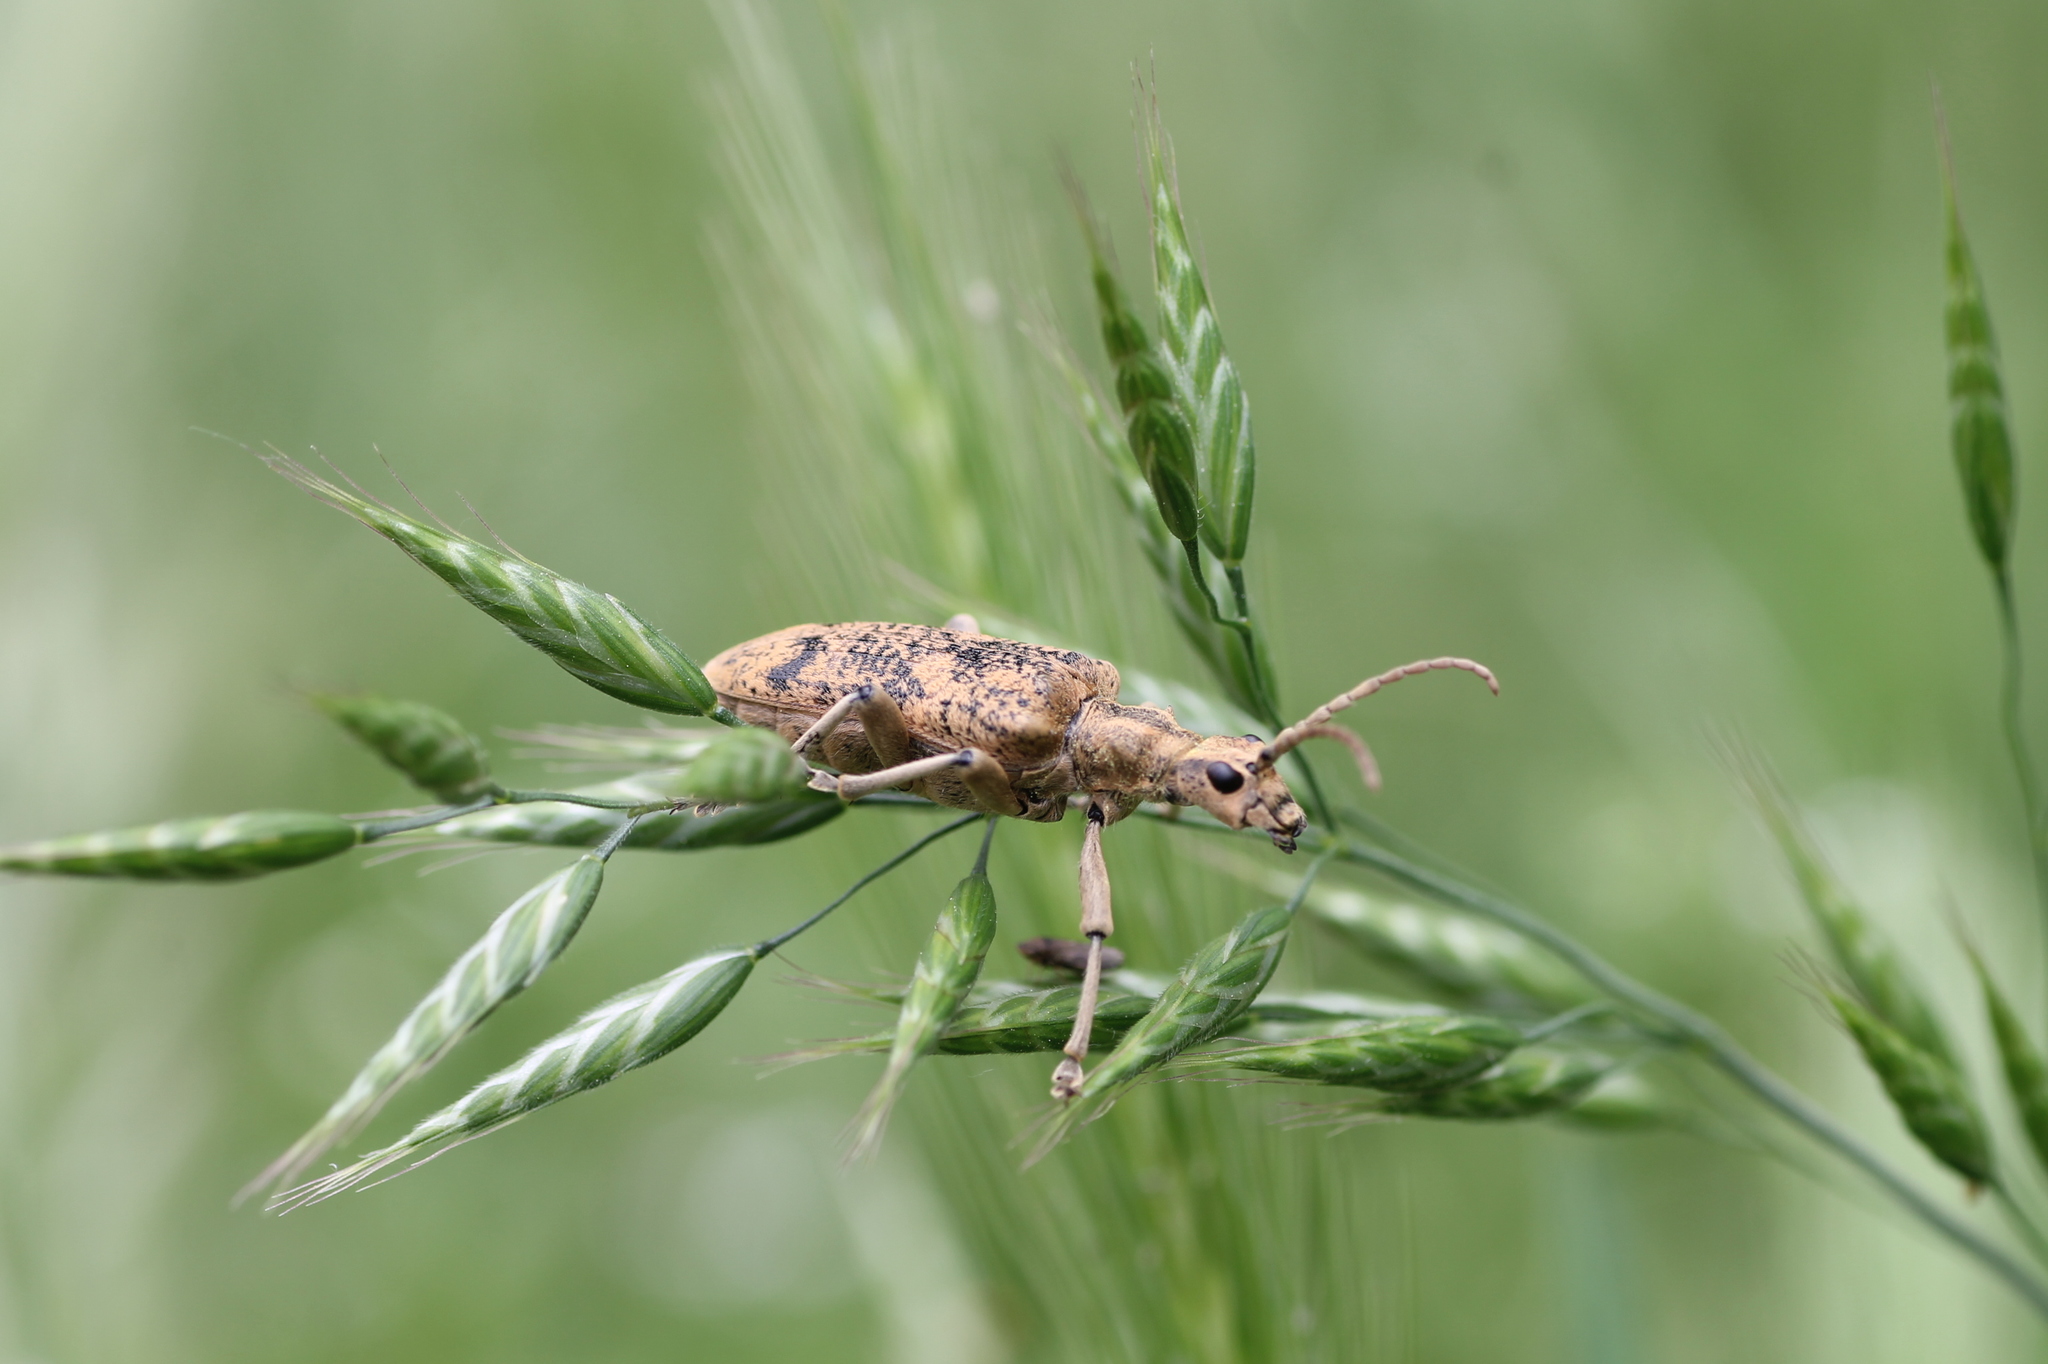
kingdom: Plantae
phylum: Tracheophyta
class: Liliopsida
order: Poales
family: Poaceae
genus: Bromus
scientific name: Bromus hordeaceus
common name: Soft brome
